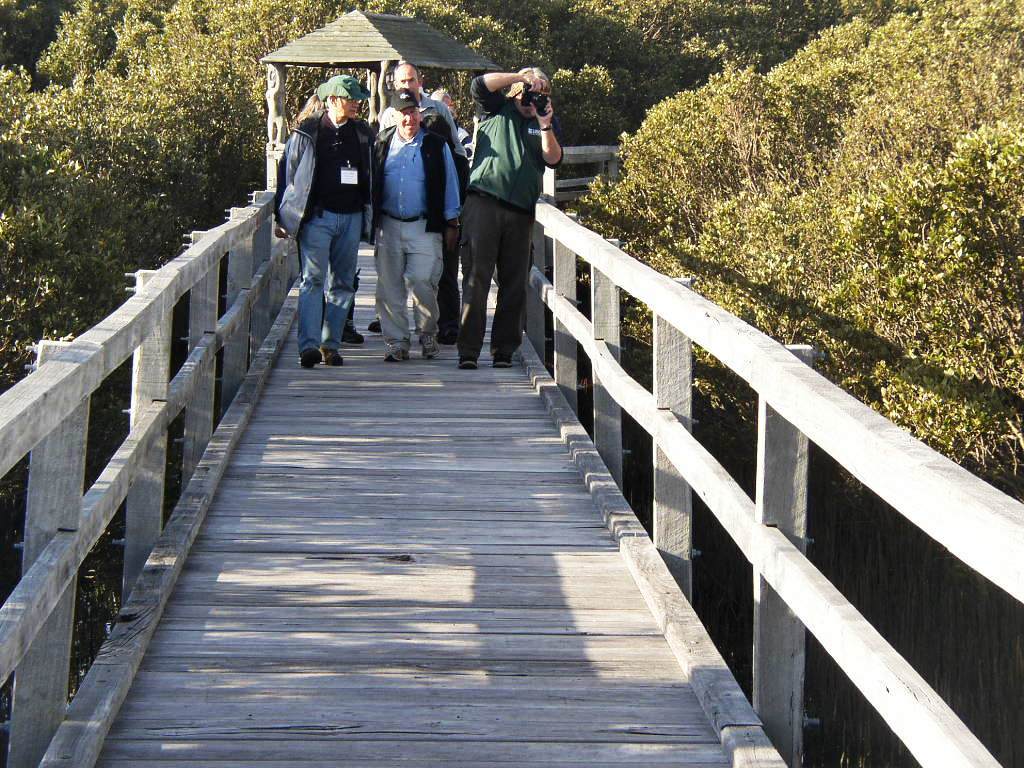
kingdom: Plantae
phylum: Tracheophyta
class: Magnoliopsida
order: Lamiales
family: Acanthaceae
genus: Avicennia
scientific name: Avicennia marina
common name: Gray mangrove
